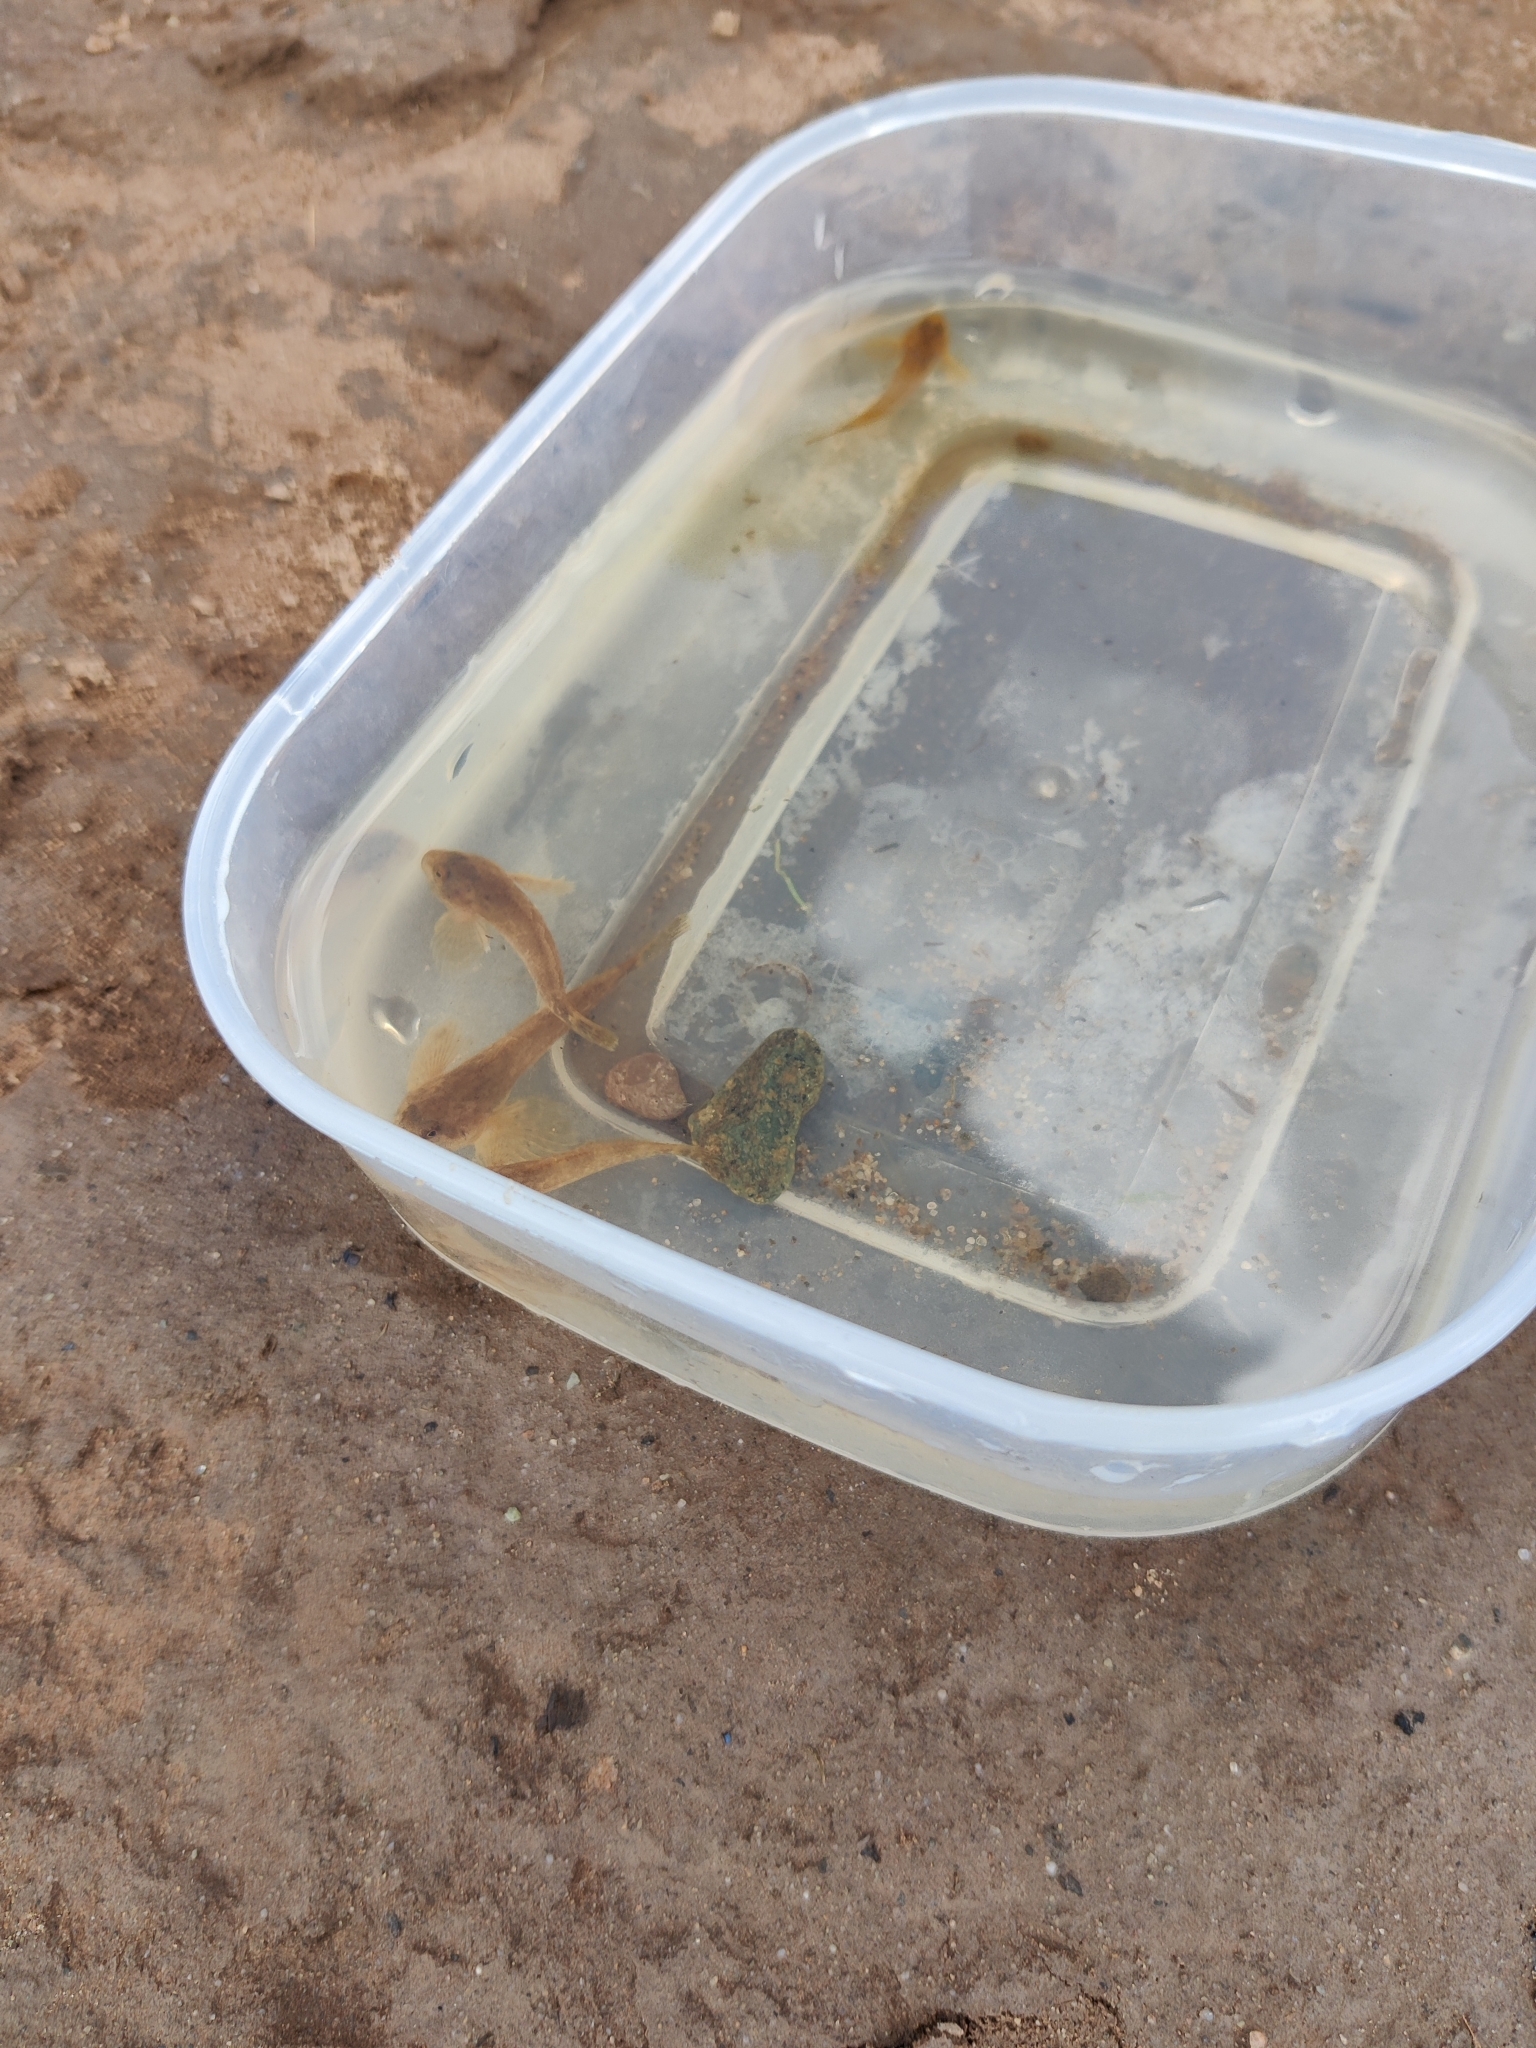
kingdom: Animalia
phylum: Chordata
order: Scorpaeniformes
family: Cottidae
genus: Cottus
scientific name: Cottus perifretum
